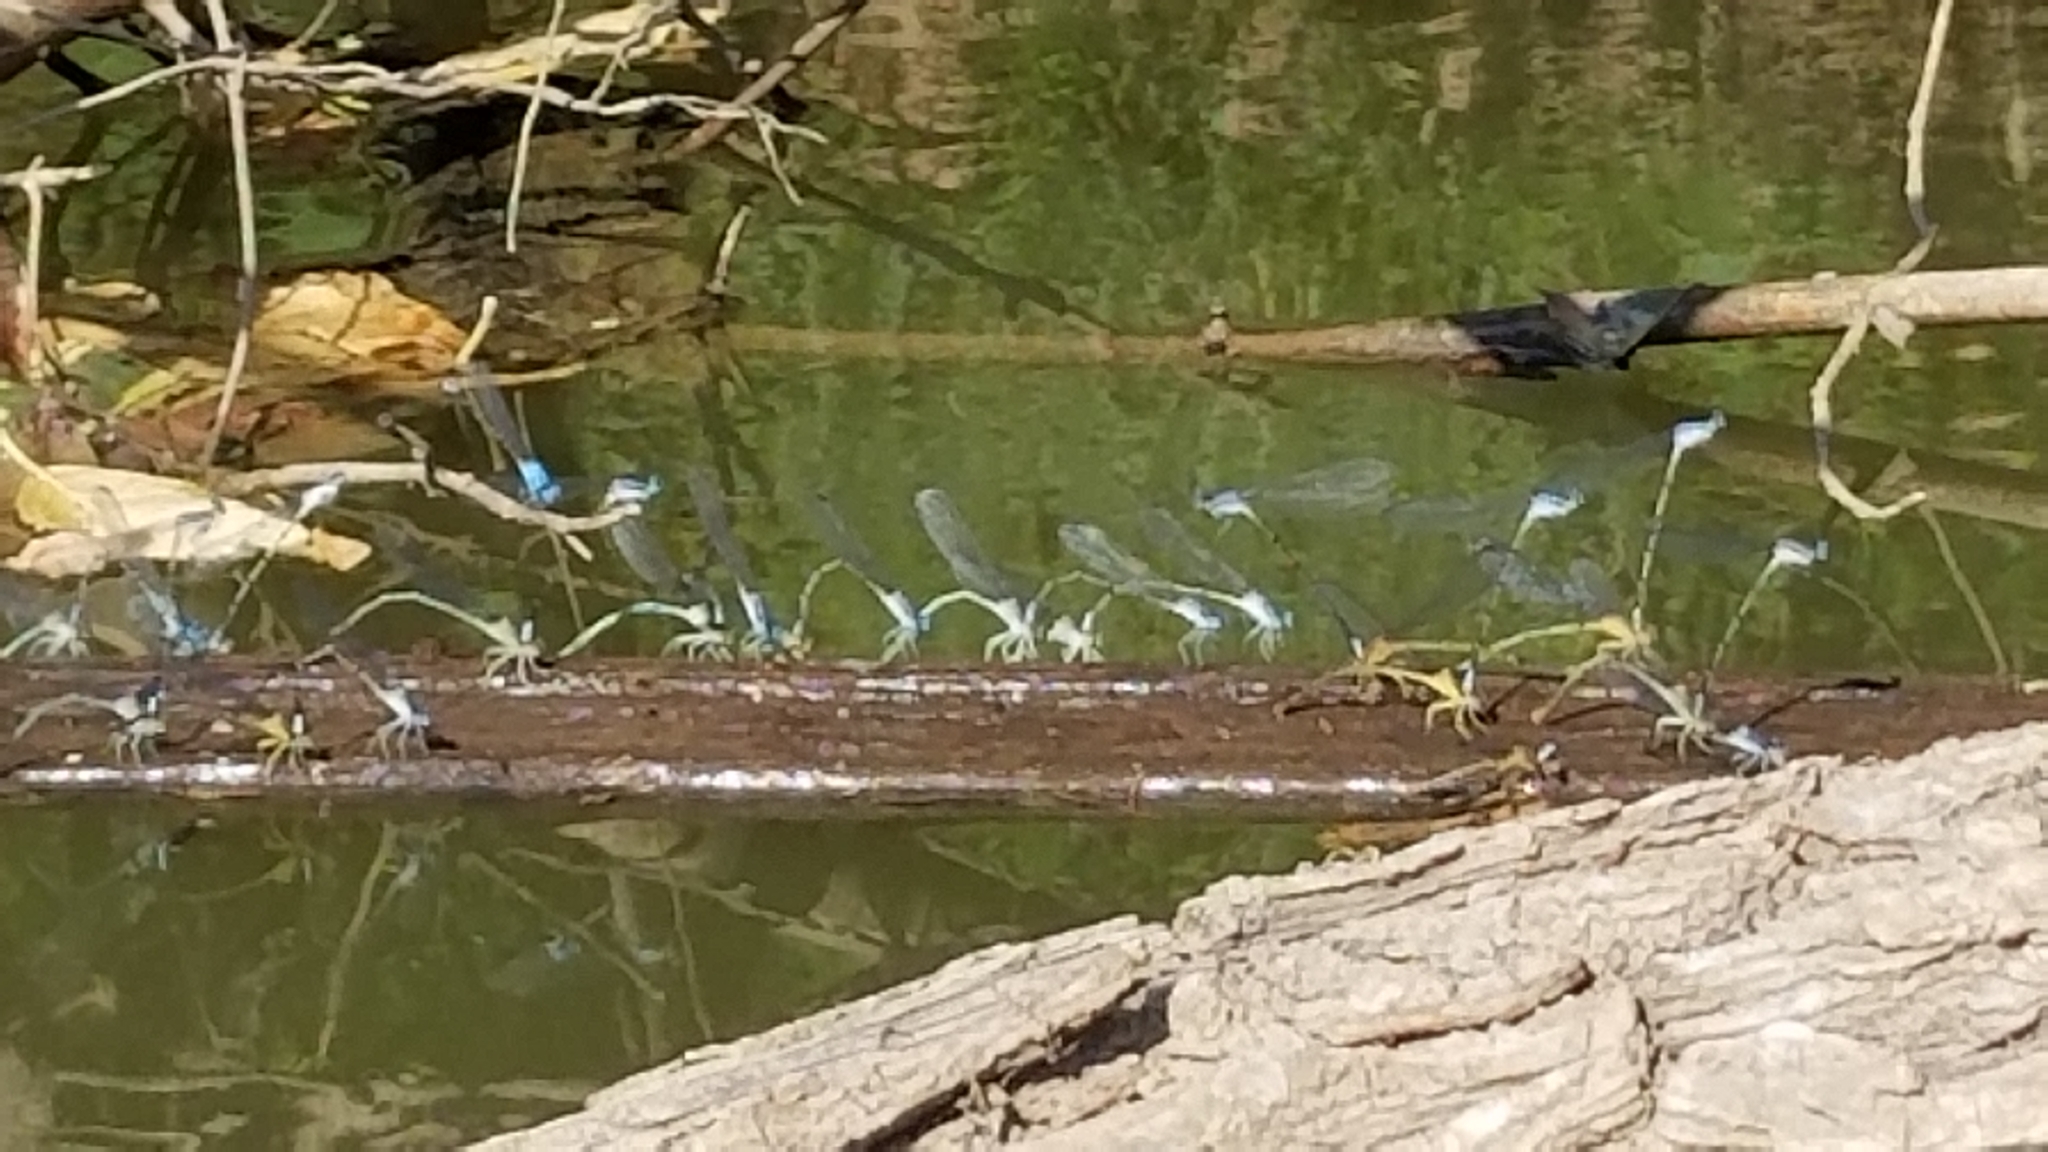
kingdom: Animalia
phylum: Arthropoda
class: Insecta
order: Odonata
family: Coenagrionidae
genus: Argia
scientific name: Argia apicalis
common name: Blue-fronted dancer
